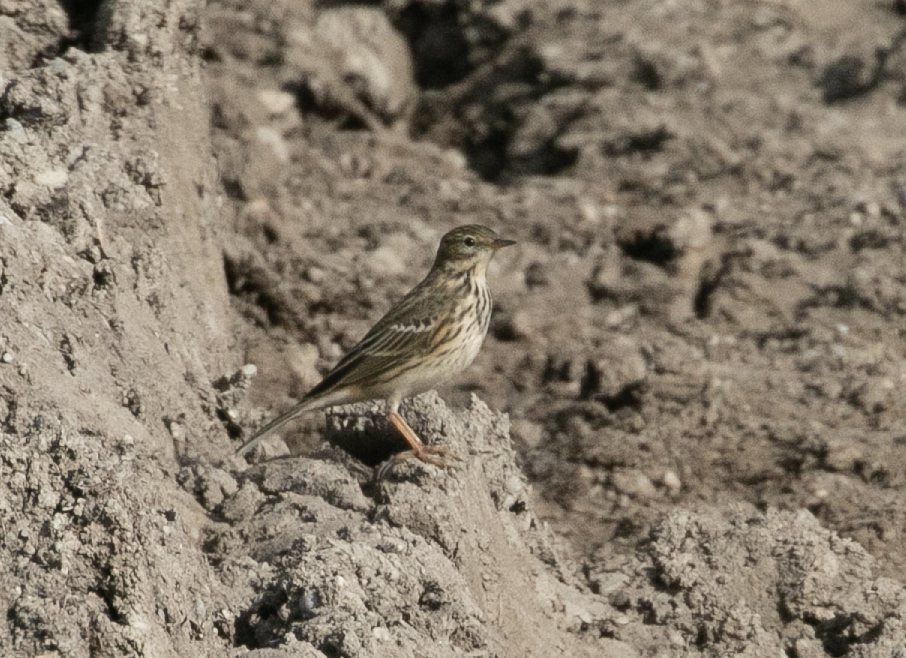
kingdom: Animalia
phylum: Chordata
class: Aves
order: Passeriformes
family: Motacillidae
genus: Anthus
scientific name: Anthus pratensis
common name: Meadow pipit
